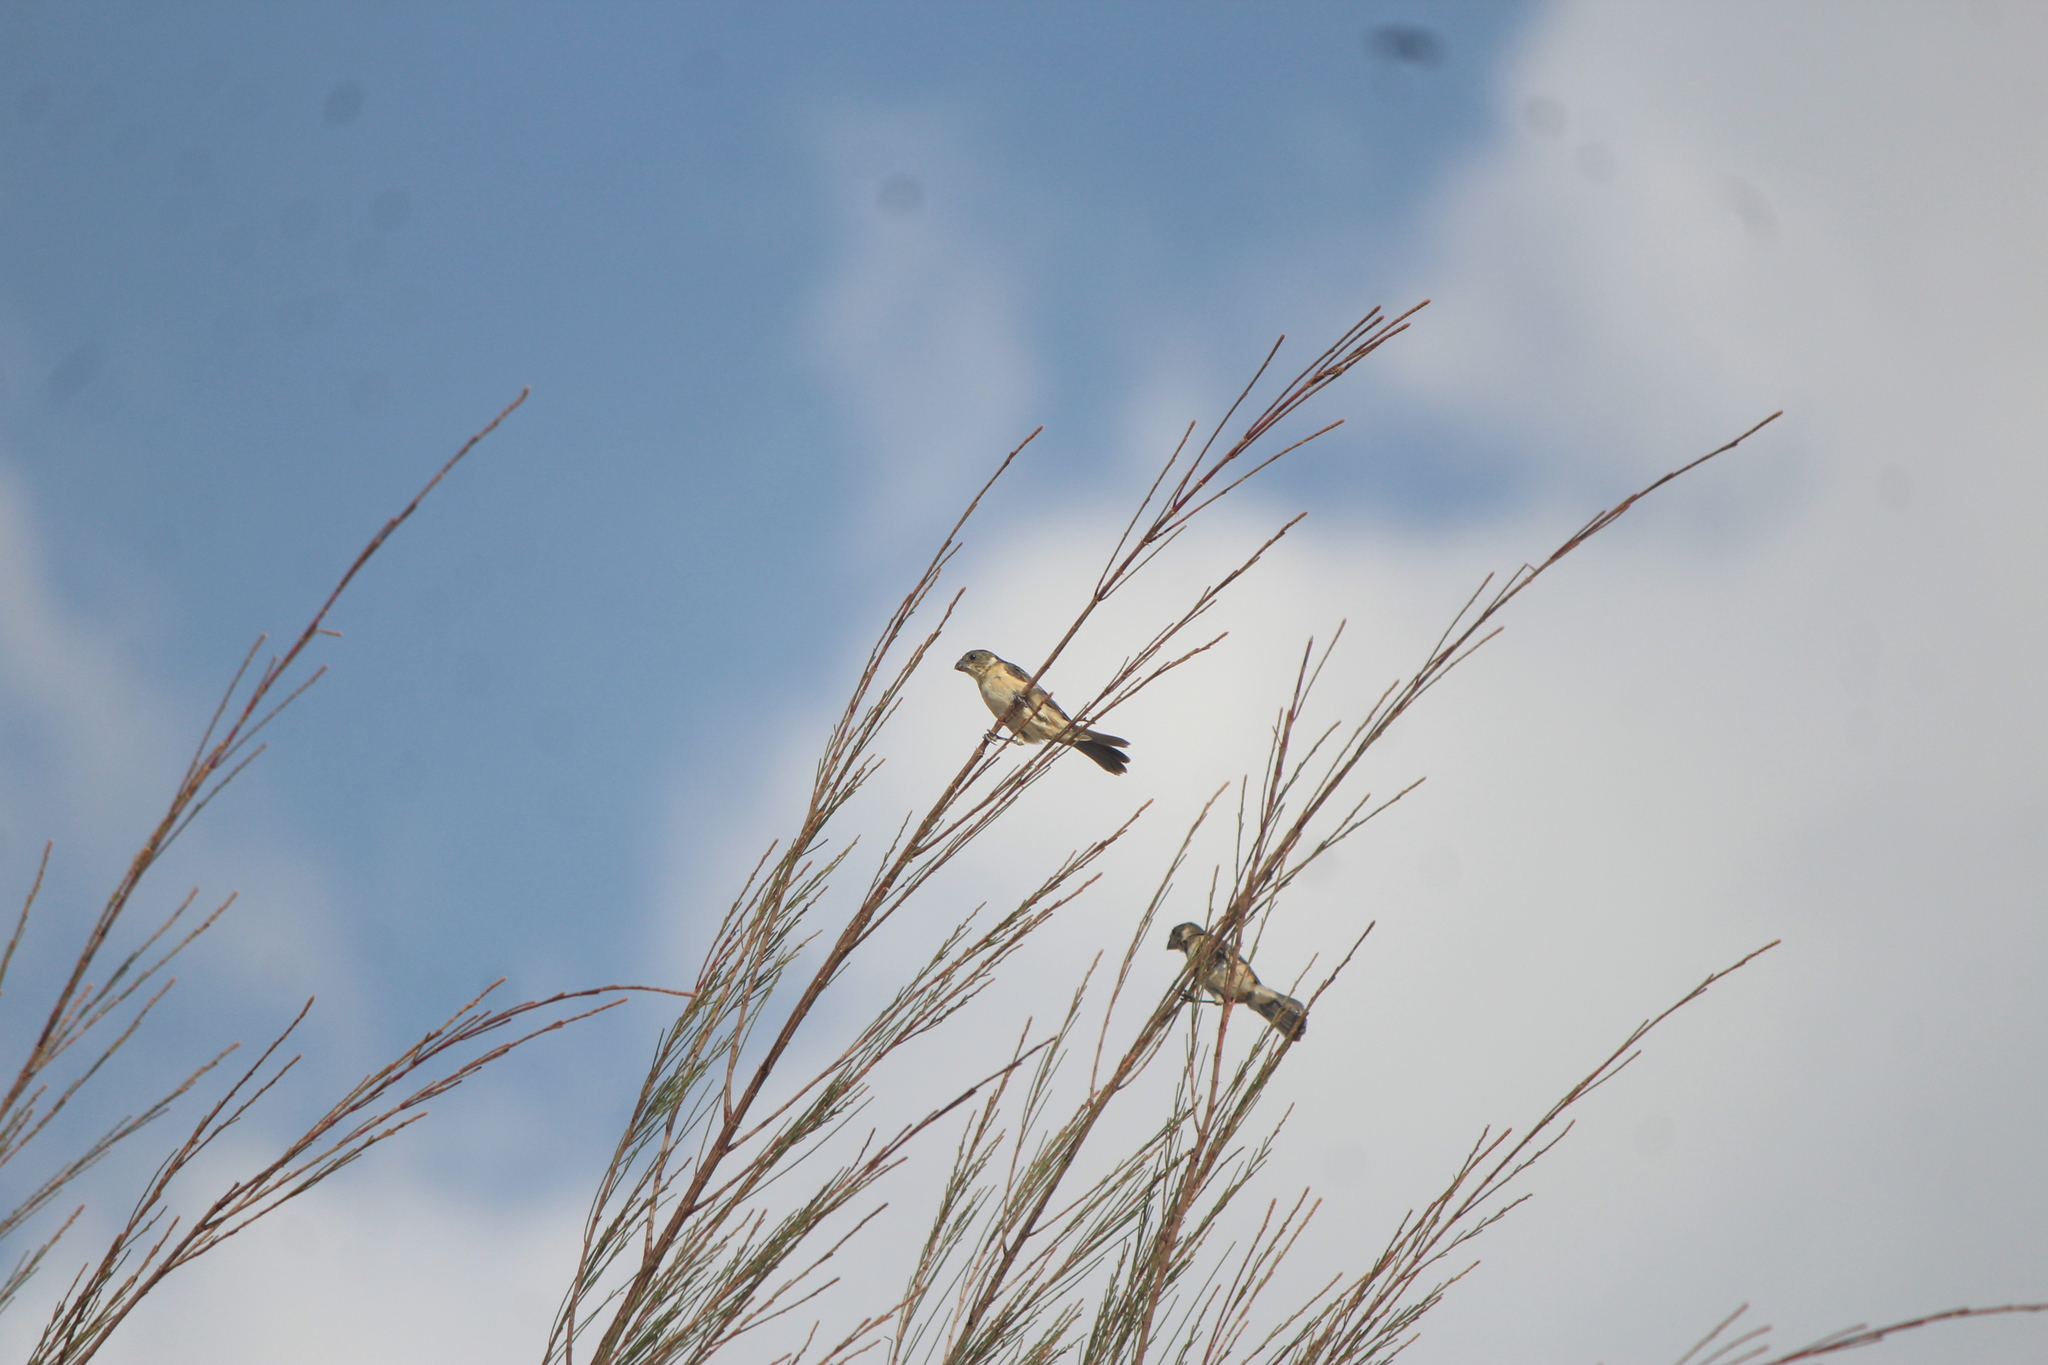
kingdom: Animalia
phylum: Chordata
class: Aves
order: Passeriformes
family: Thraupidae
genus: Sporophila
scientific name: Sporophila torqueola
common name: White-collared seedeater
